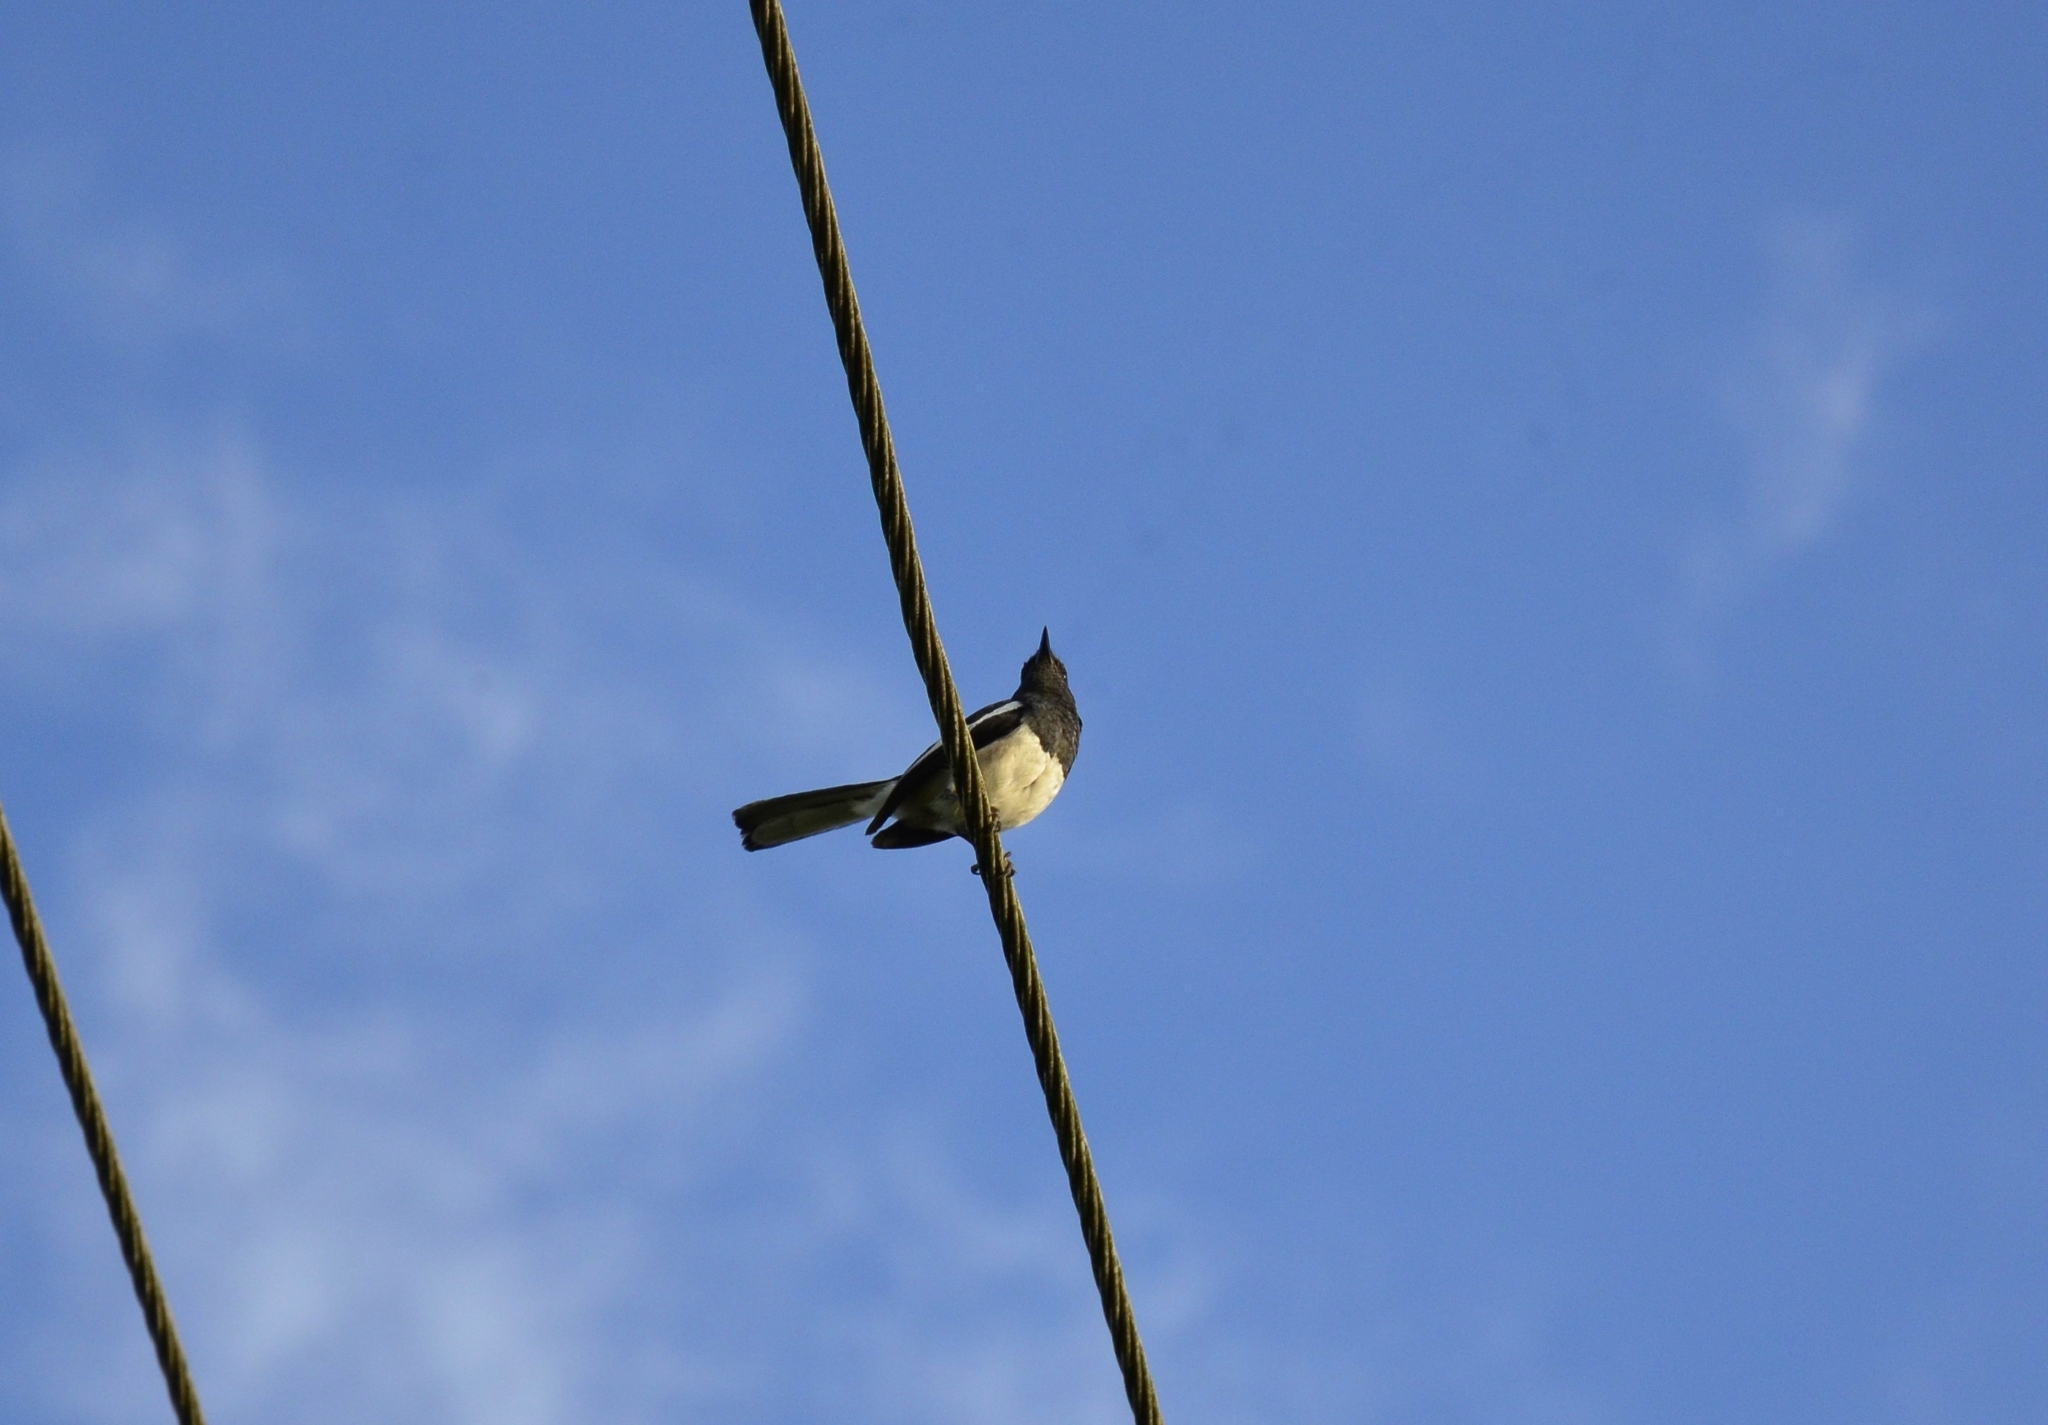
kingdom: Animalia
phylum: Chordata
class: Aves
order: Passeriformes
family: Muscicapidae
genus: Copsychus
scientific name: Copsychus saularis
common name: Oriental magpie-robin
